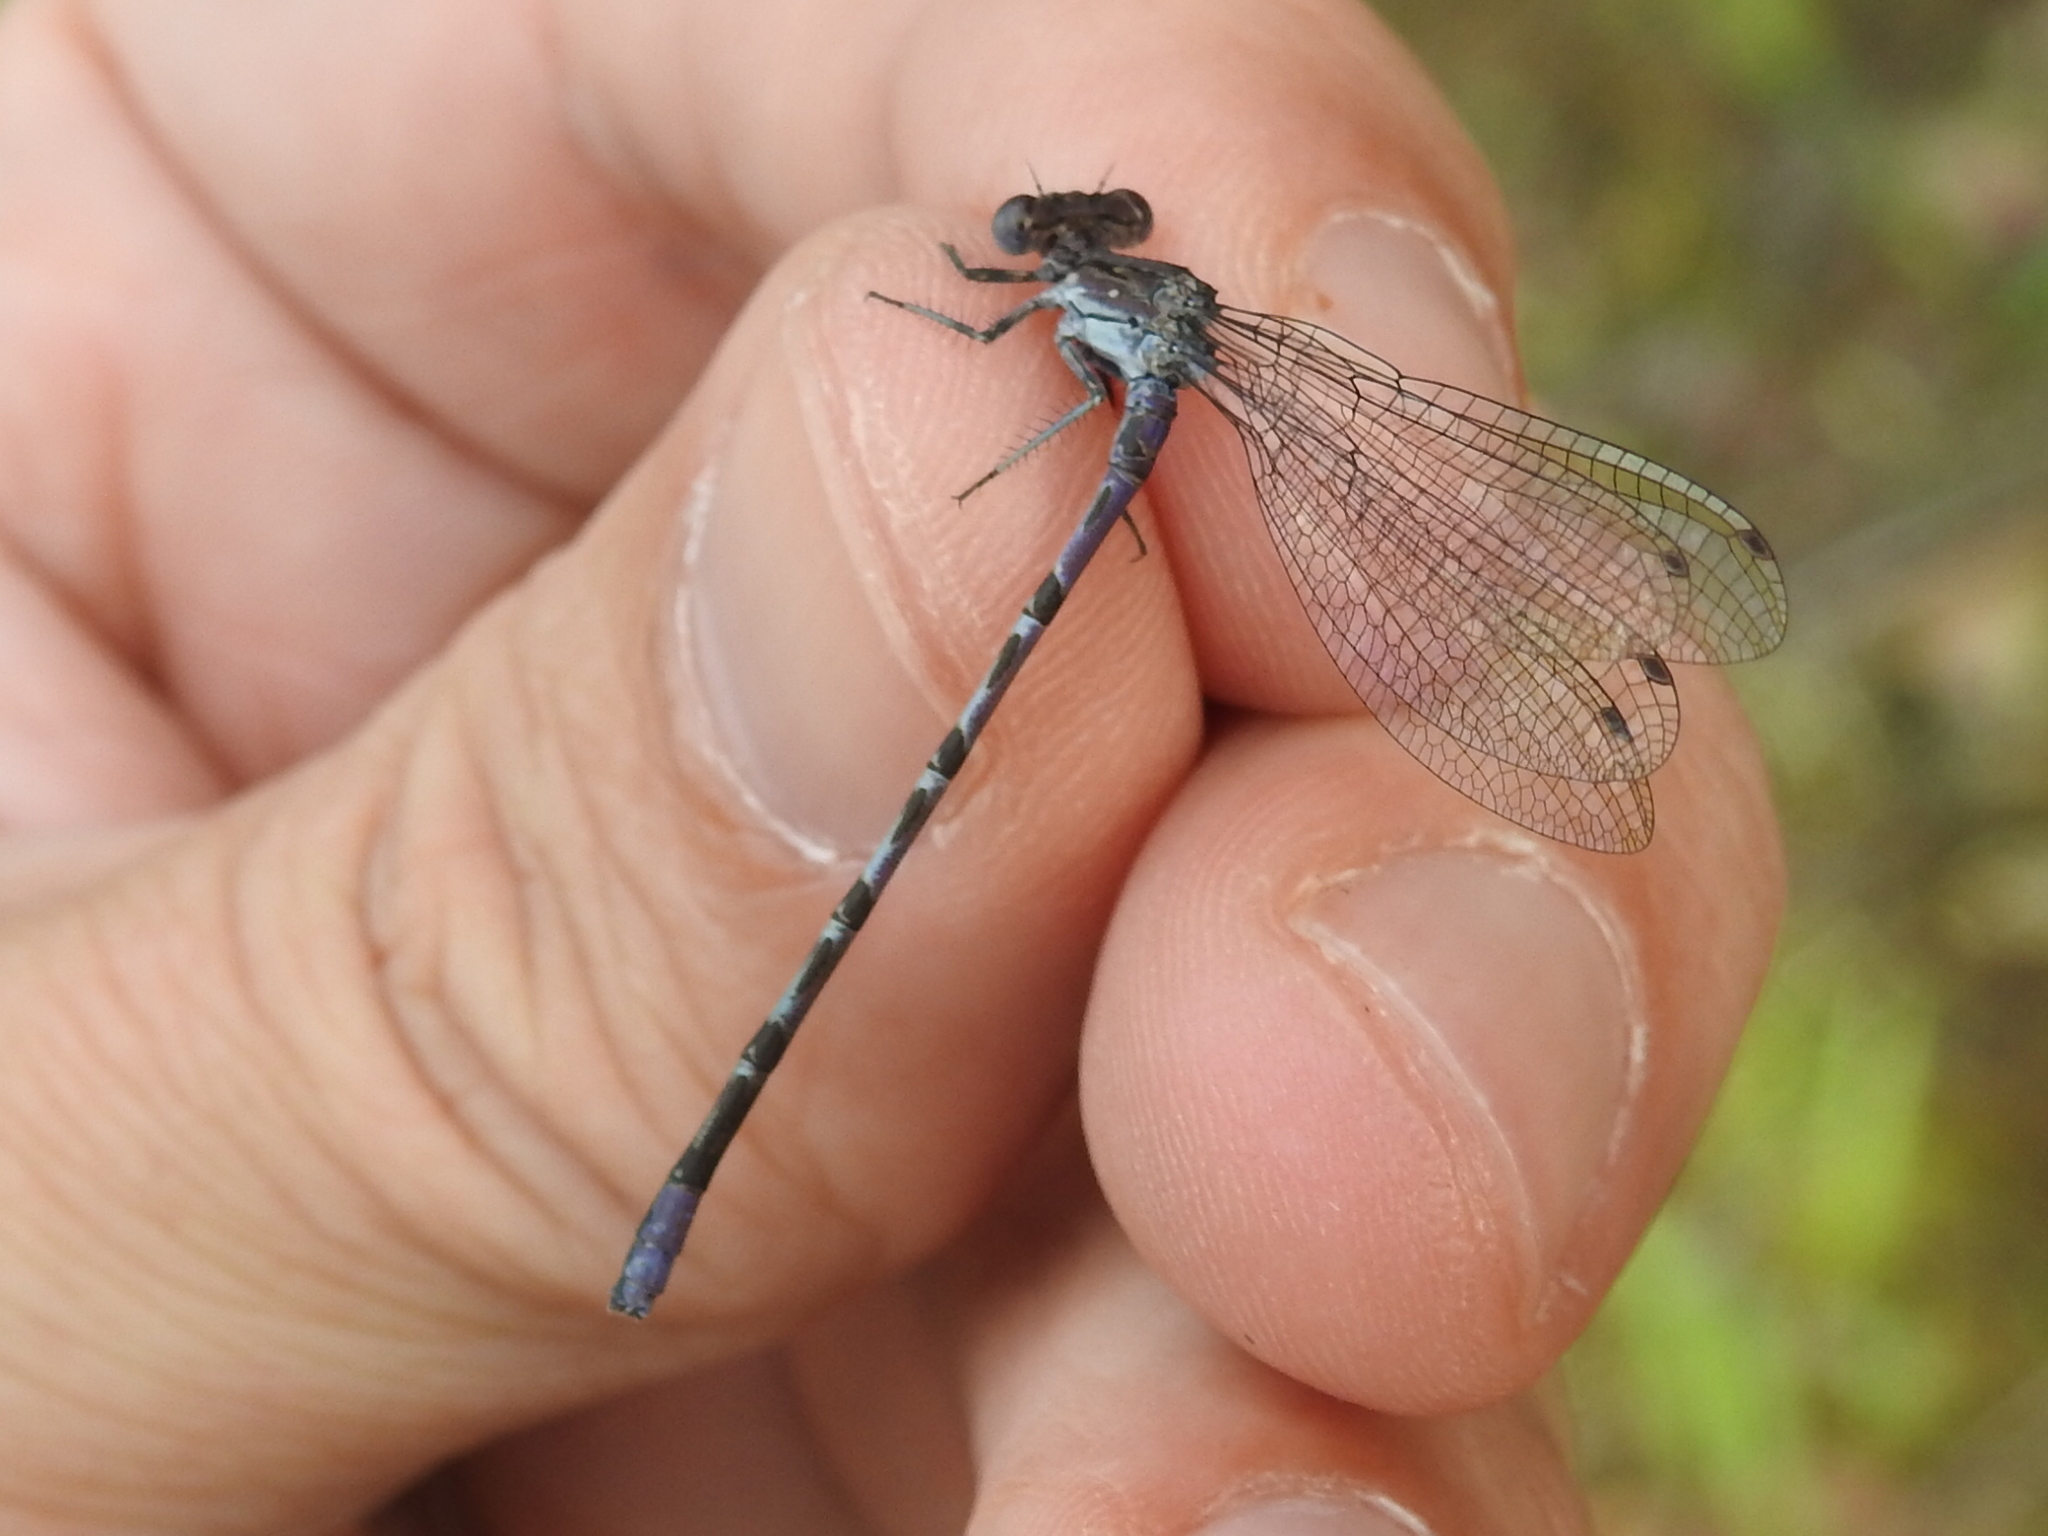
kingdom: Animalia
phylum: Arthropoda
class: Insecta
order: Odonata
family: Coenagrionidae
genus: Argia
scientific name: Argia immunda
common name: Kiowa dancer
